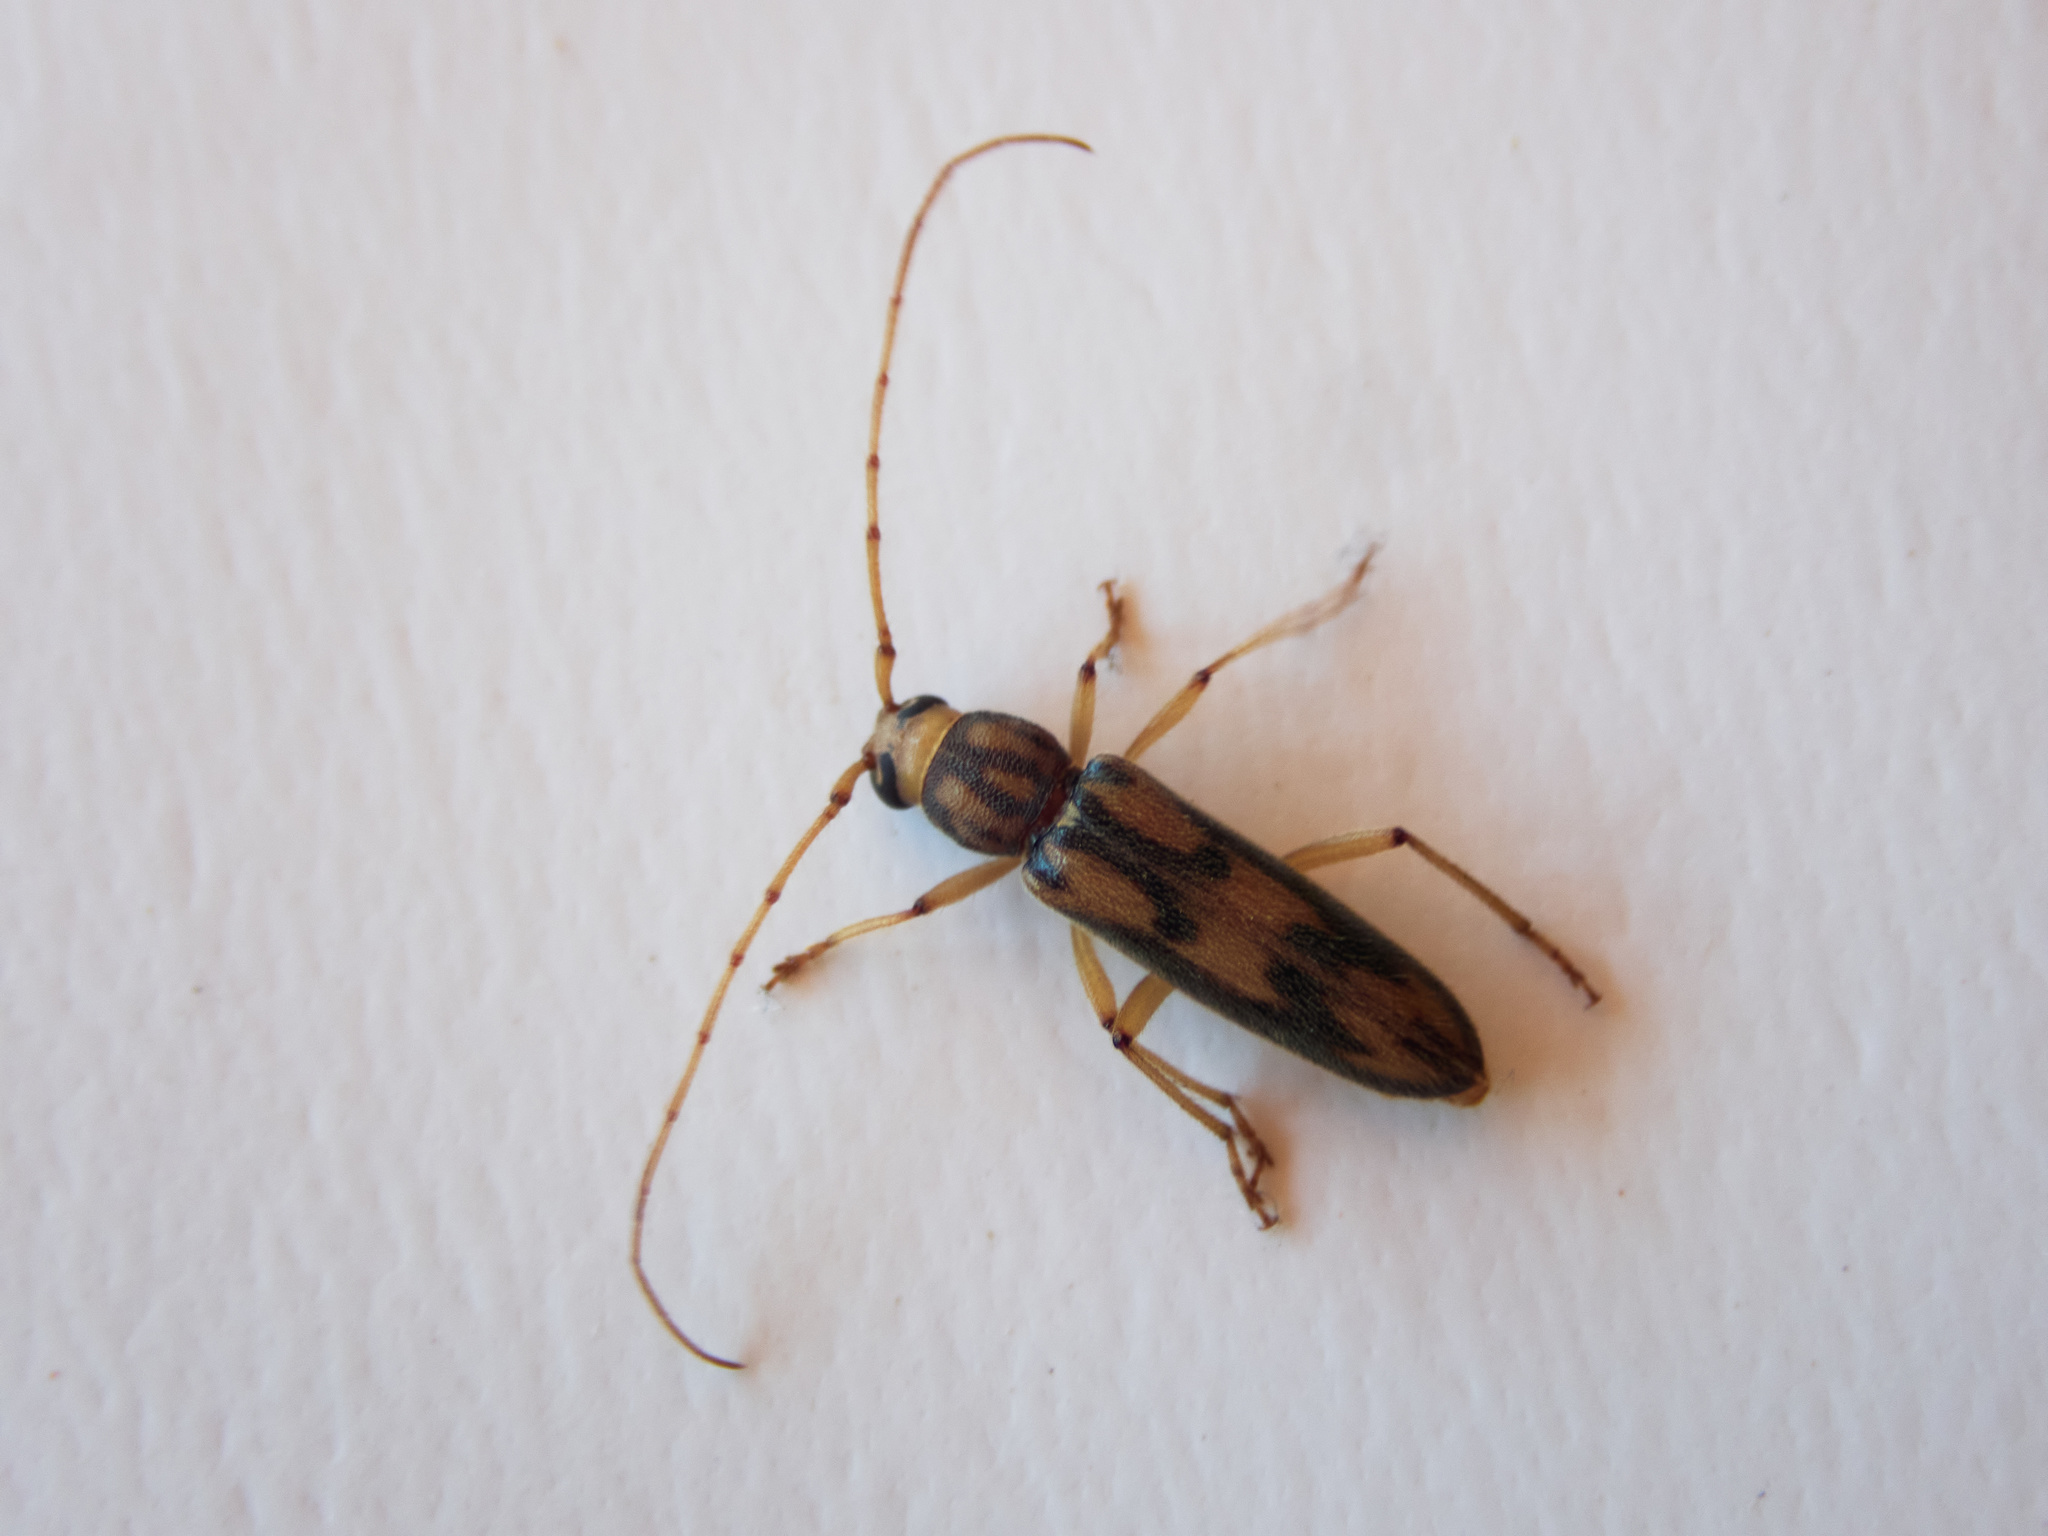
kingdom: Animalia
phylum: Arthropoda
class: Insecta
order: Coleoptera
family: Cerambycidae
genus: Achryson
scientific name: Achryson surinamum
